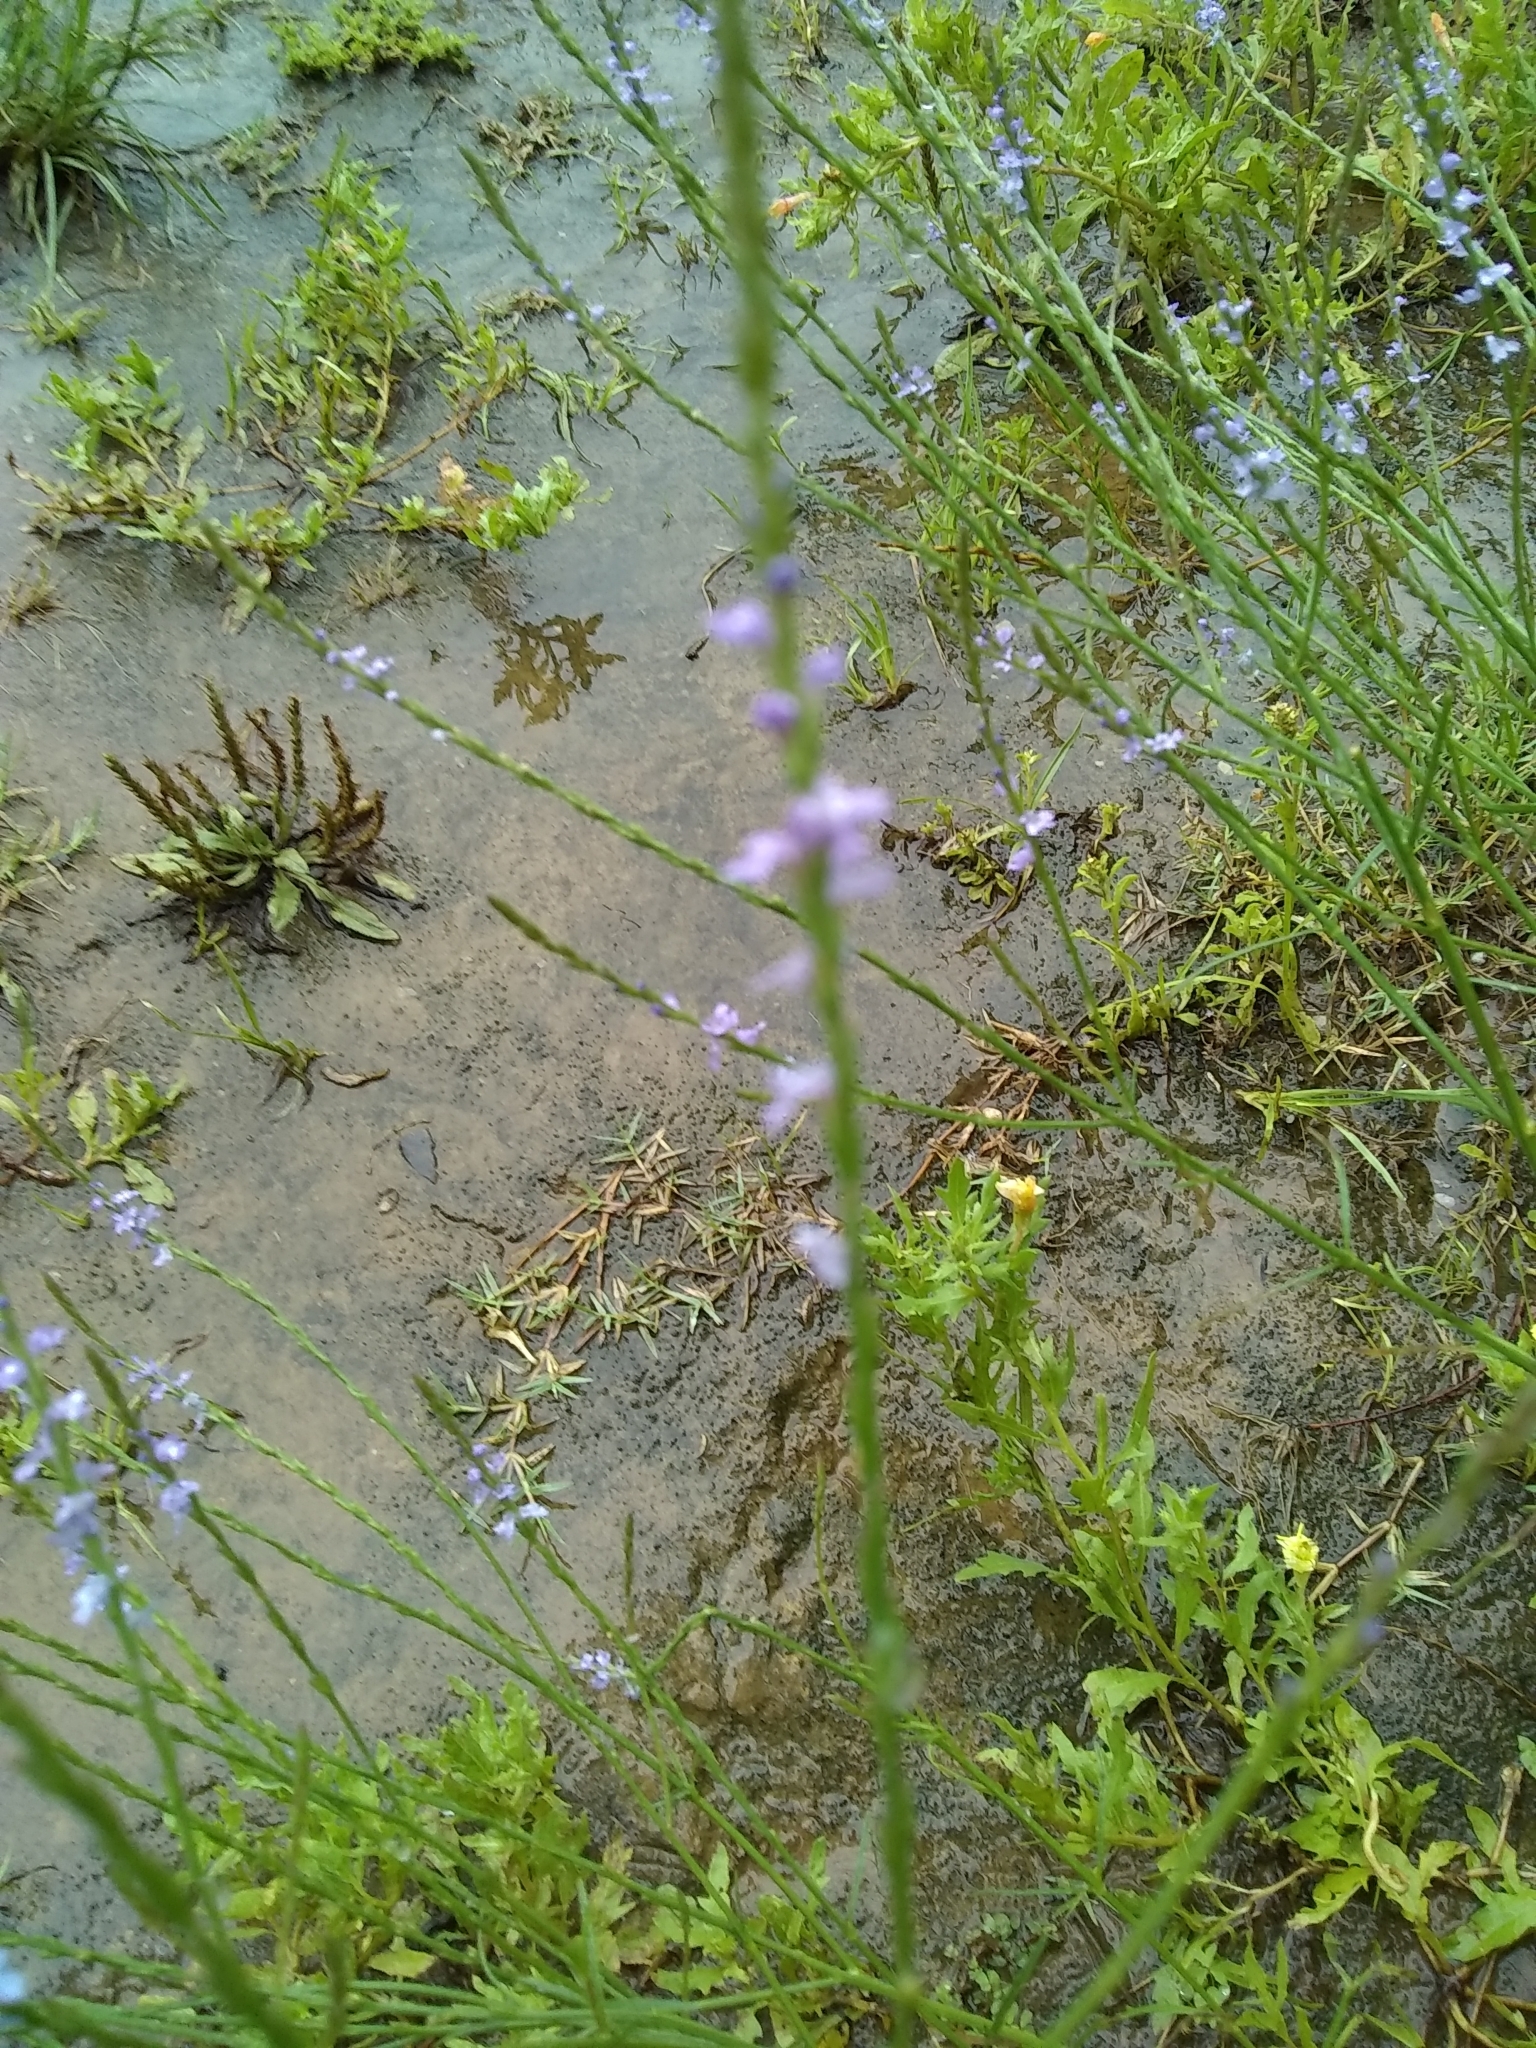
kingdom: Plantae
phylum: Tracheophyta
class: Magnoliopsida
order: Lamiales
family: Verbenaceae
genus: Verbena
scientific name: Verbena halei
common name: Texas vervain
